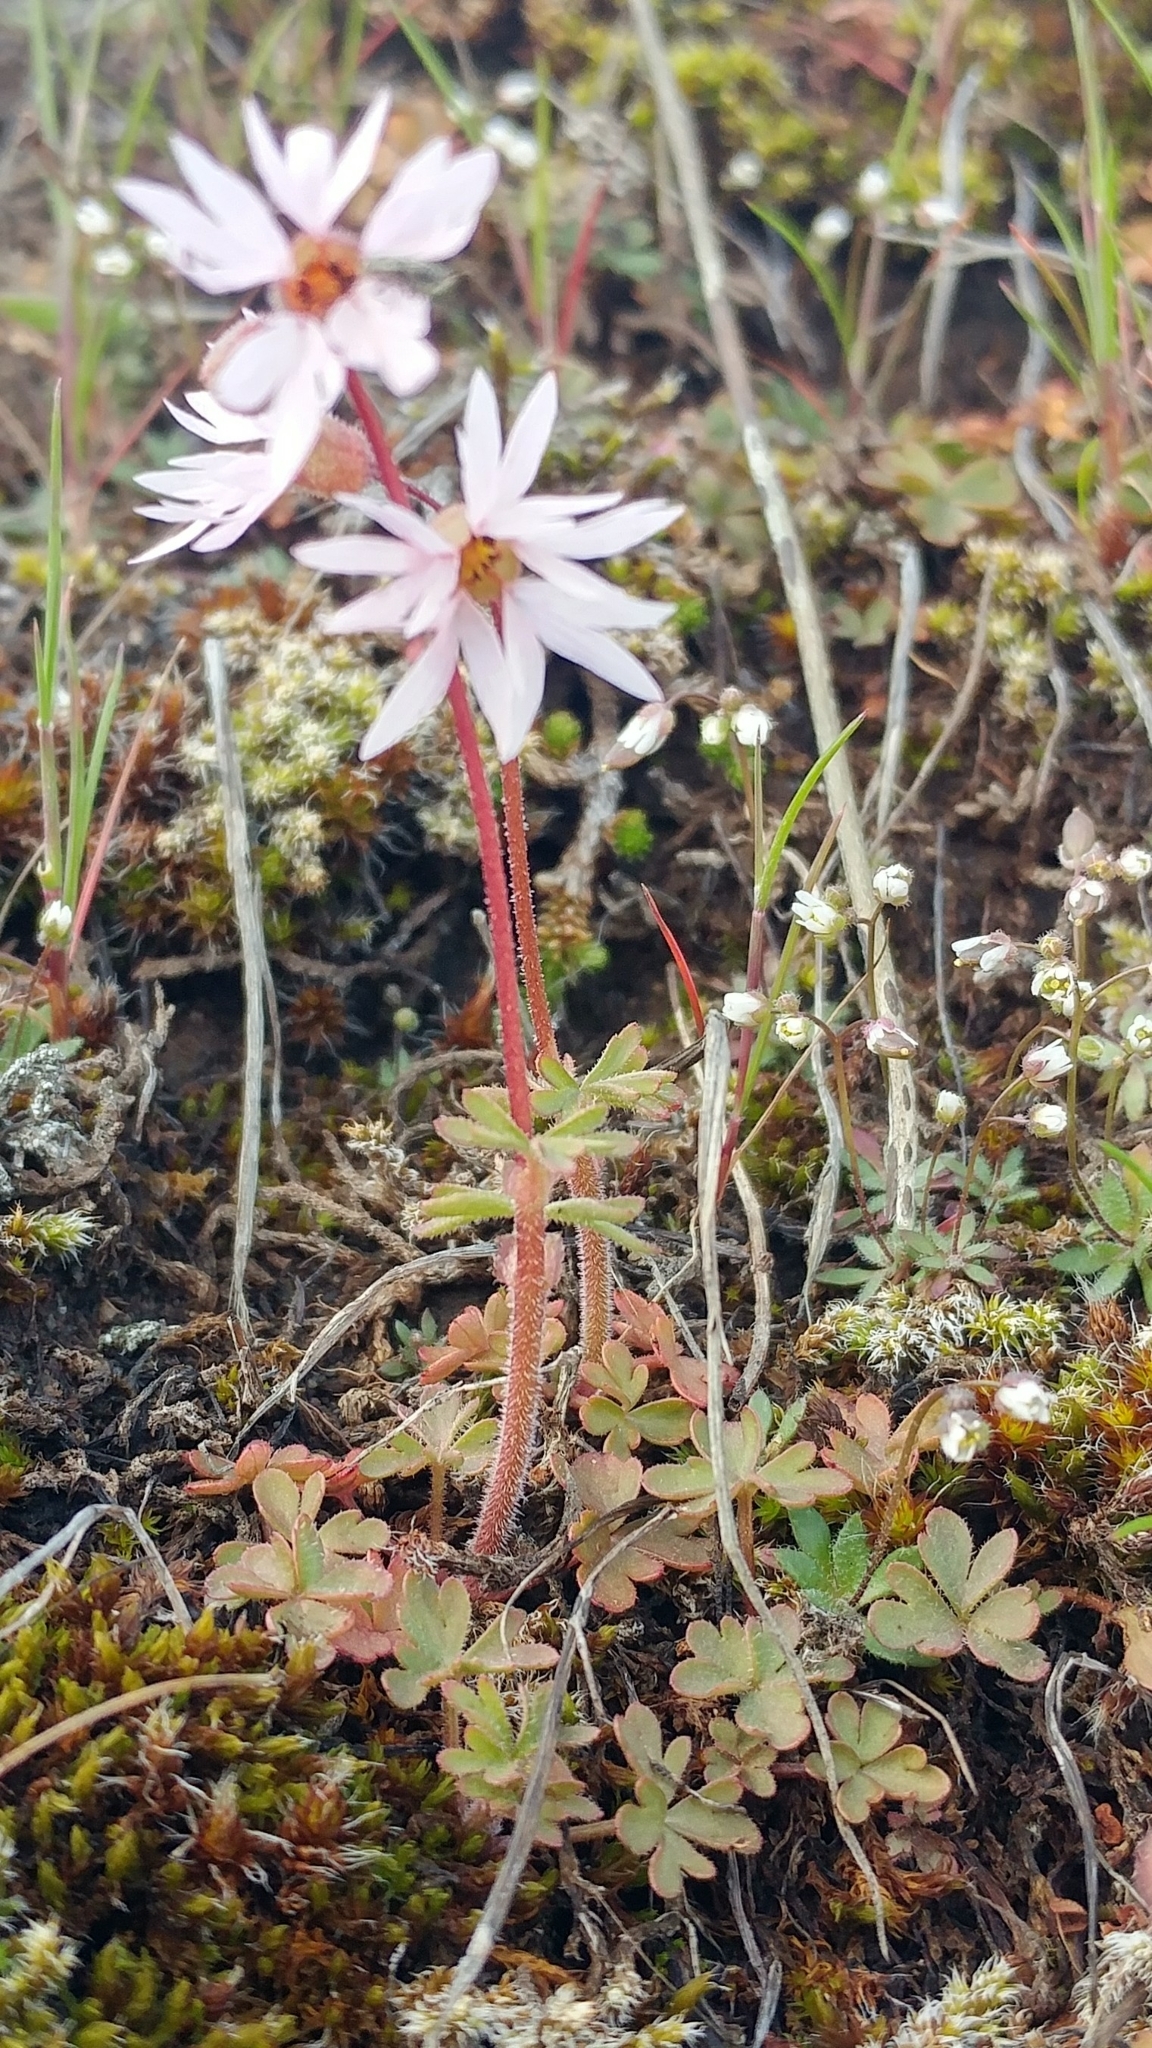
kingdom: Plantae
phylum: Tracheophyta
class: Magnoliopsida
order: Saxifragales
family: Saxifragaceae
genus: Lithophragma
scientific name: Lithophragma glabrum
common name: Bulbous prairie-star
